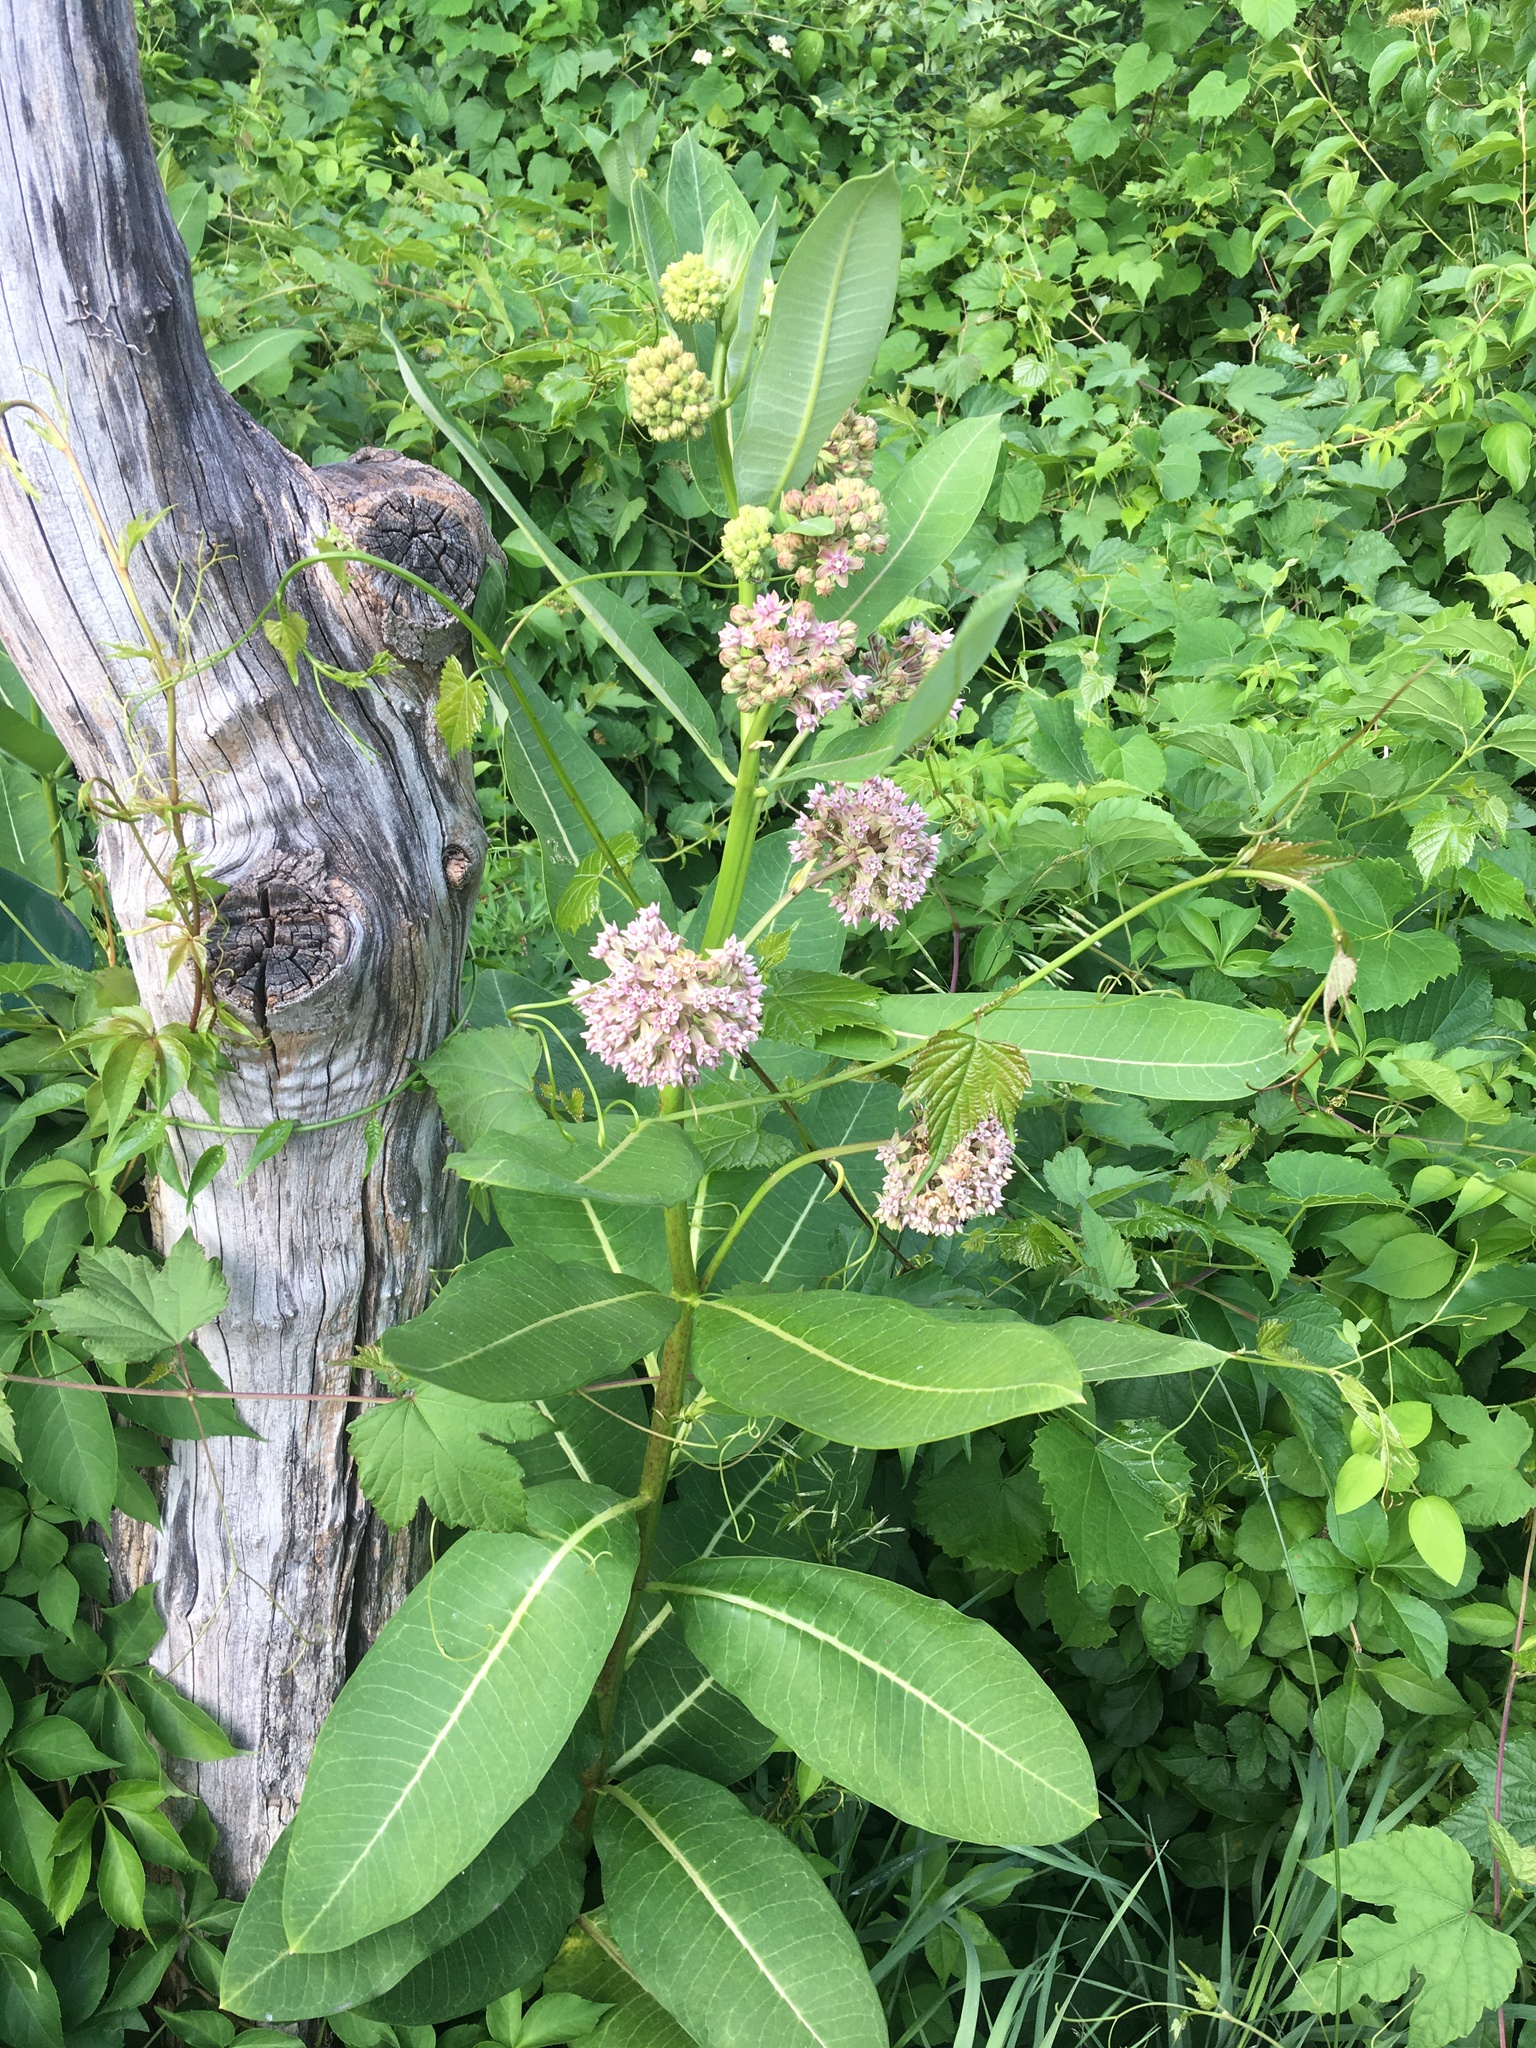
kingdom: Plantae
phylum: Tracheophyta
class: Magnoliopsida
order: Gentianales
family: Apocynaceae
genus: Asclepias
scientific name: Asclepias syriaca
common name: Common milkweed
